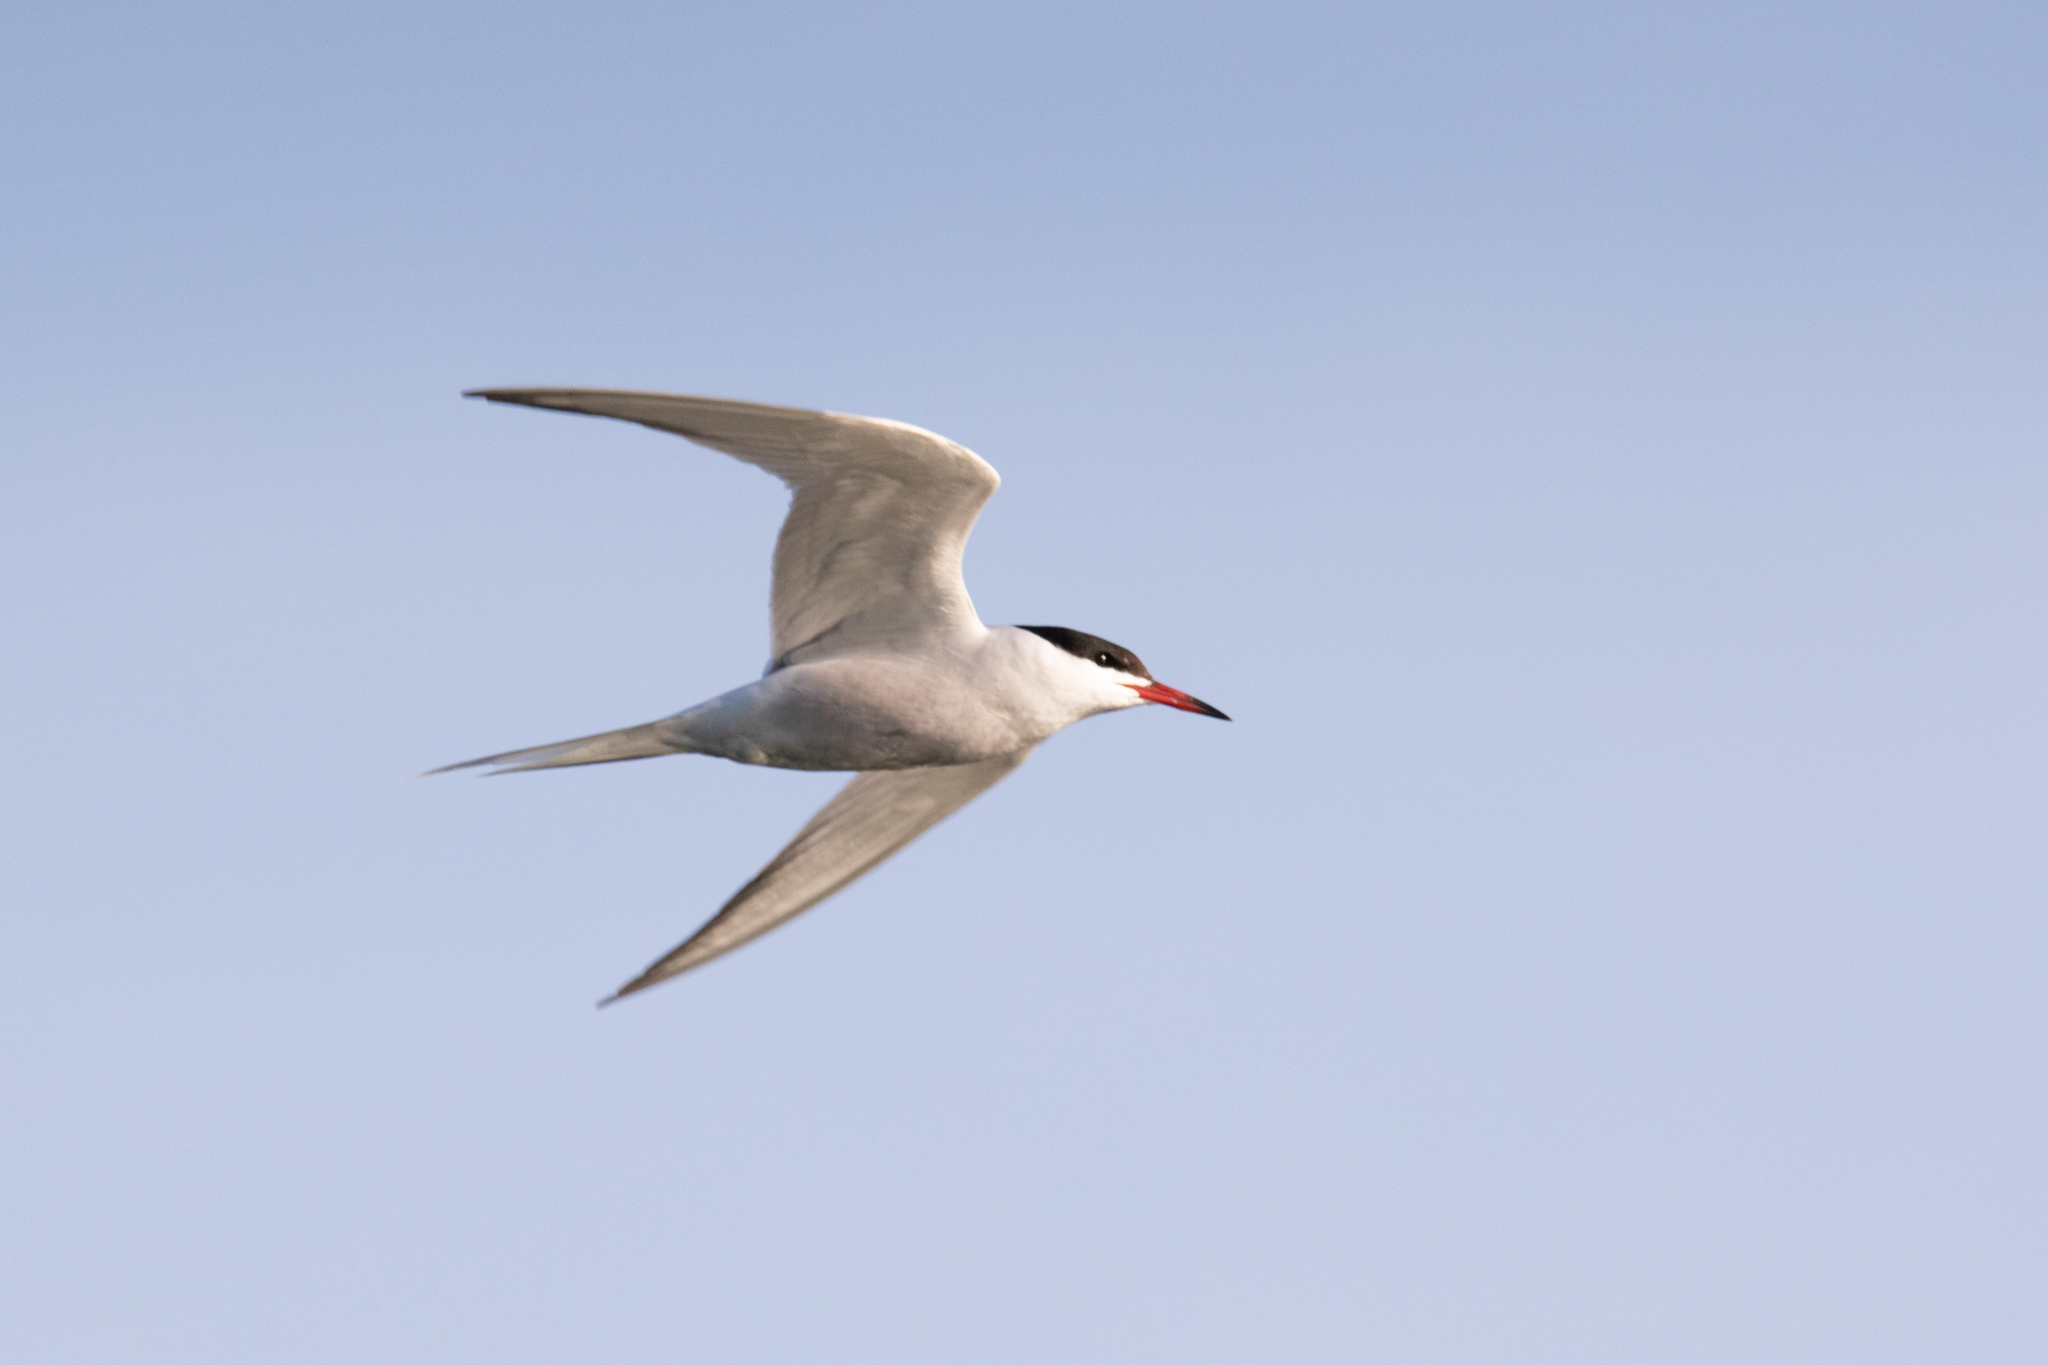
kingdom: Animalia
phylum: Chordata
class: Aves
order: Charadriiformes
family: Laridae
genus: Sterna
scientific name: Sterna hirundo
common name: Common tern
